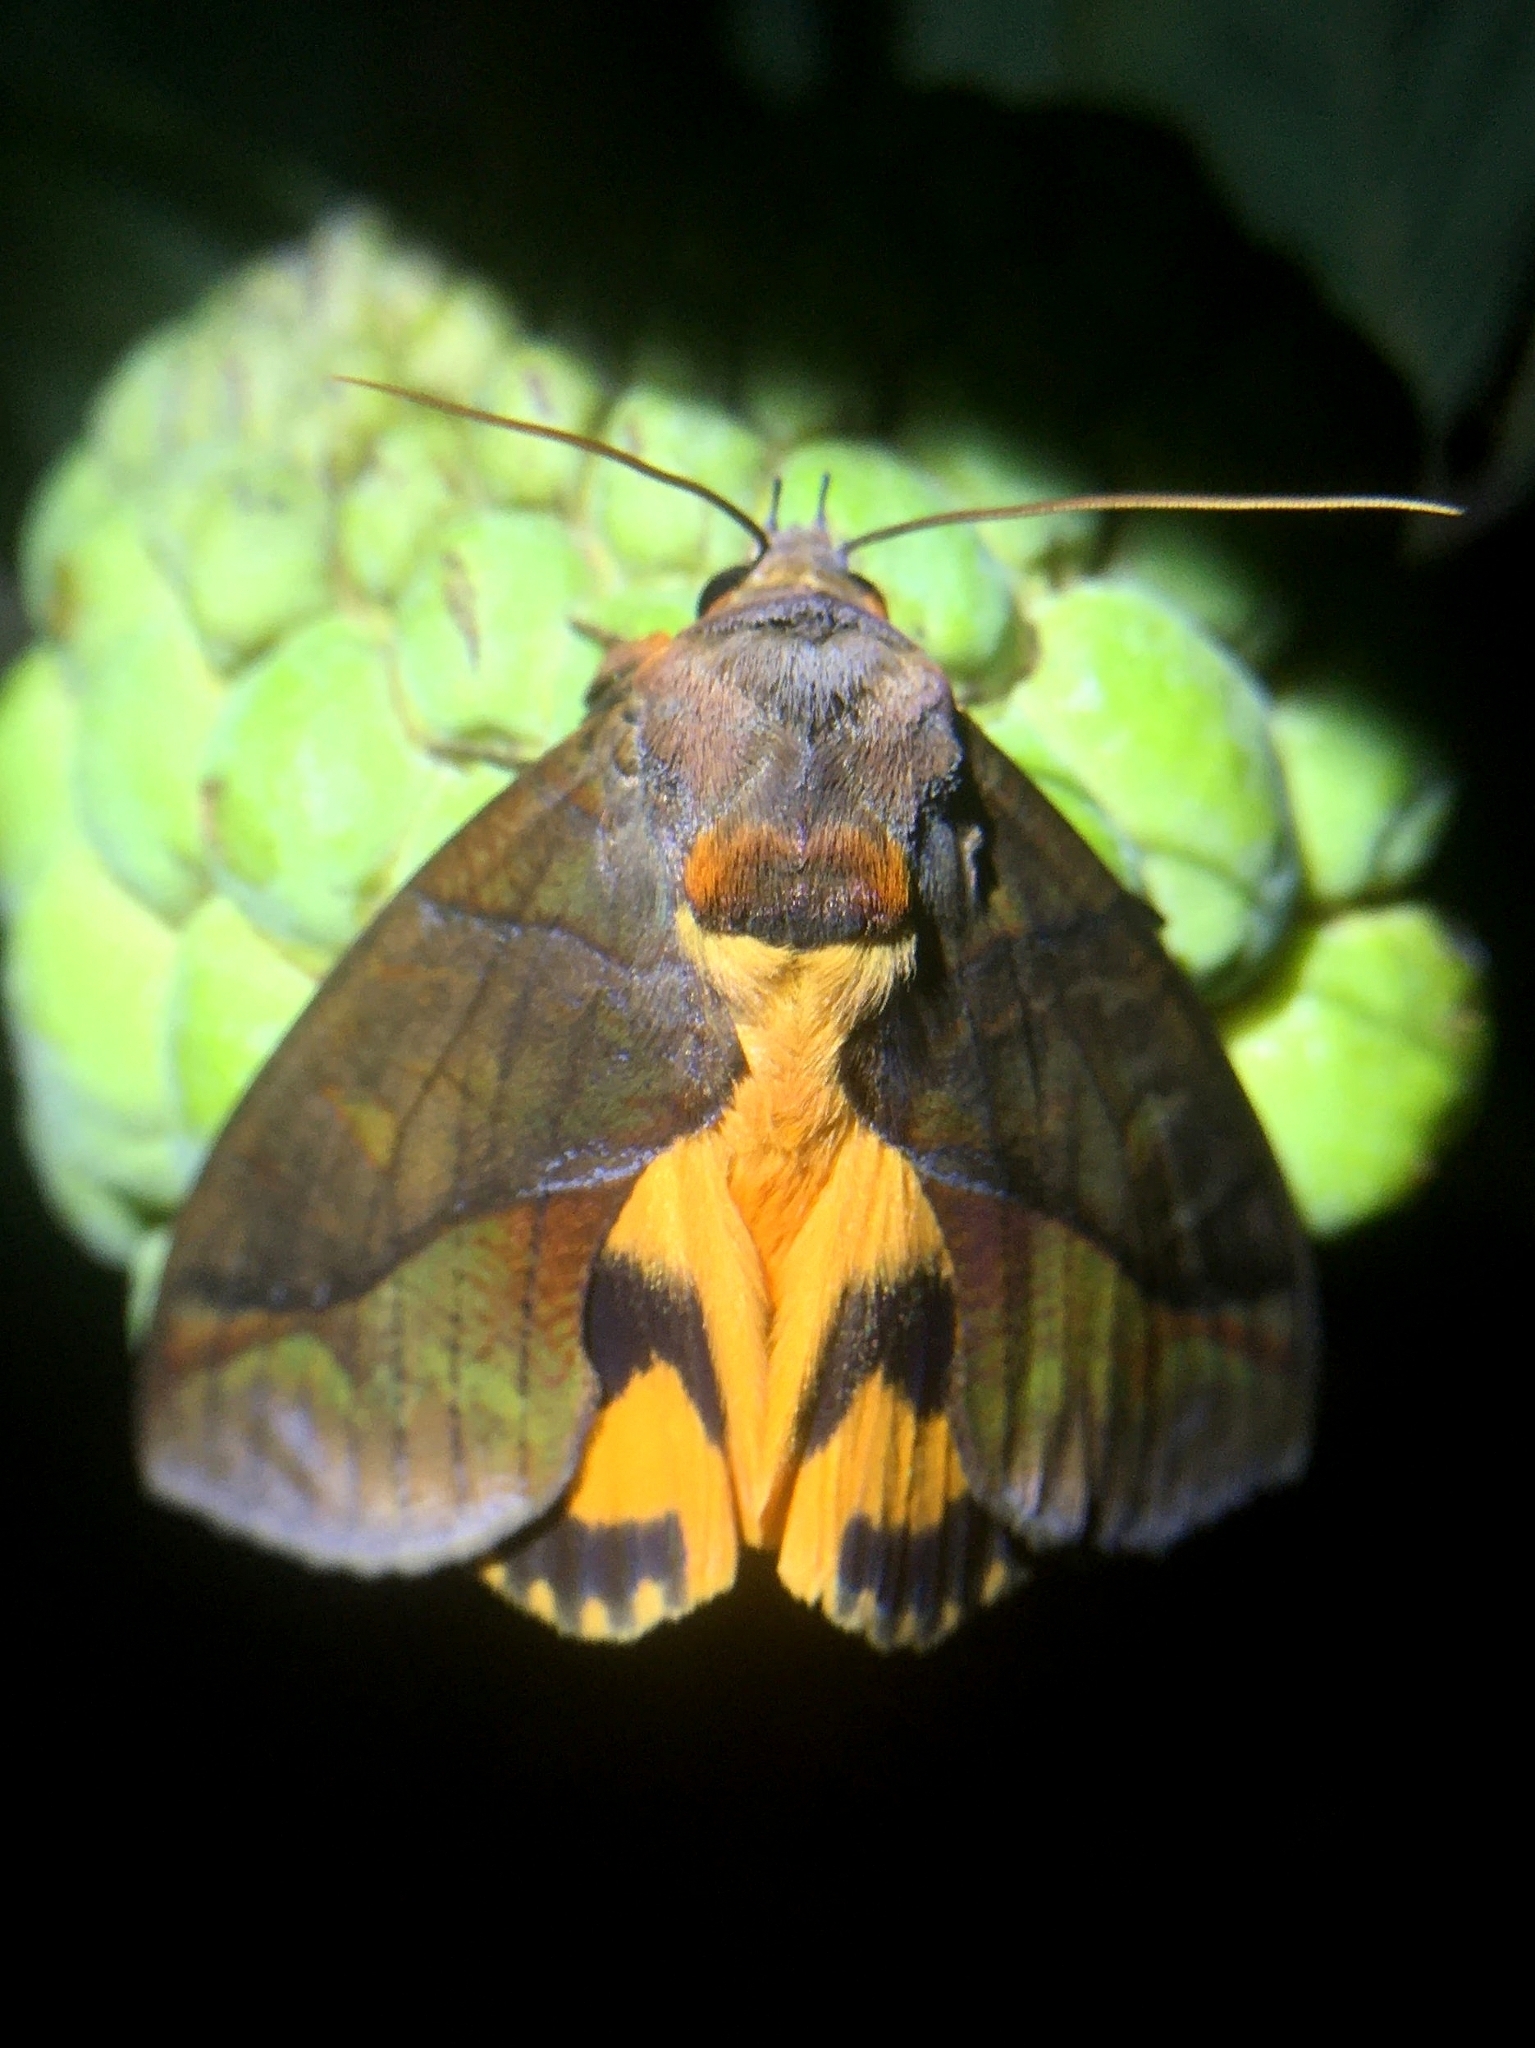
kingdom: Animalia
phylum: Arthropoda
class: Insecta
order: Lepidoptera
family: Erebidae
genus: Eudocima
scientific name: Eudocima homaena
